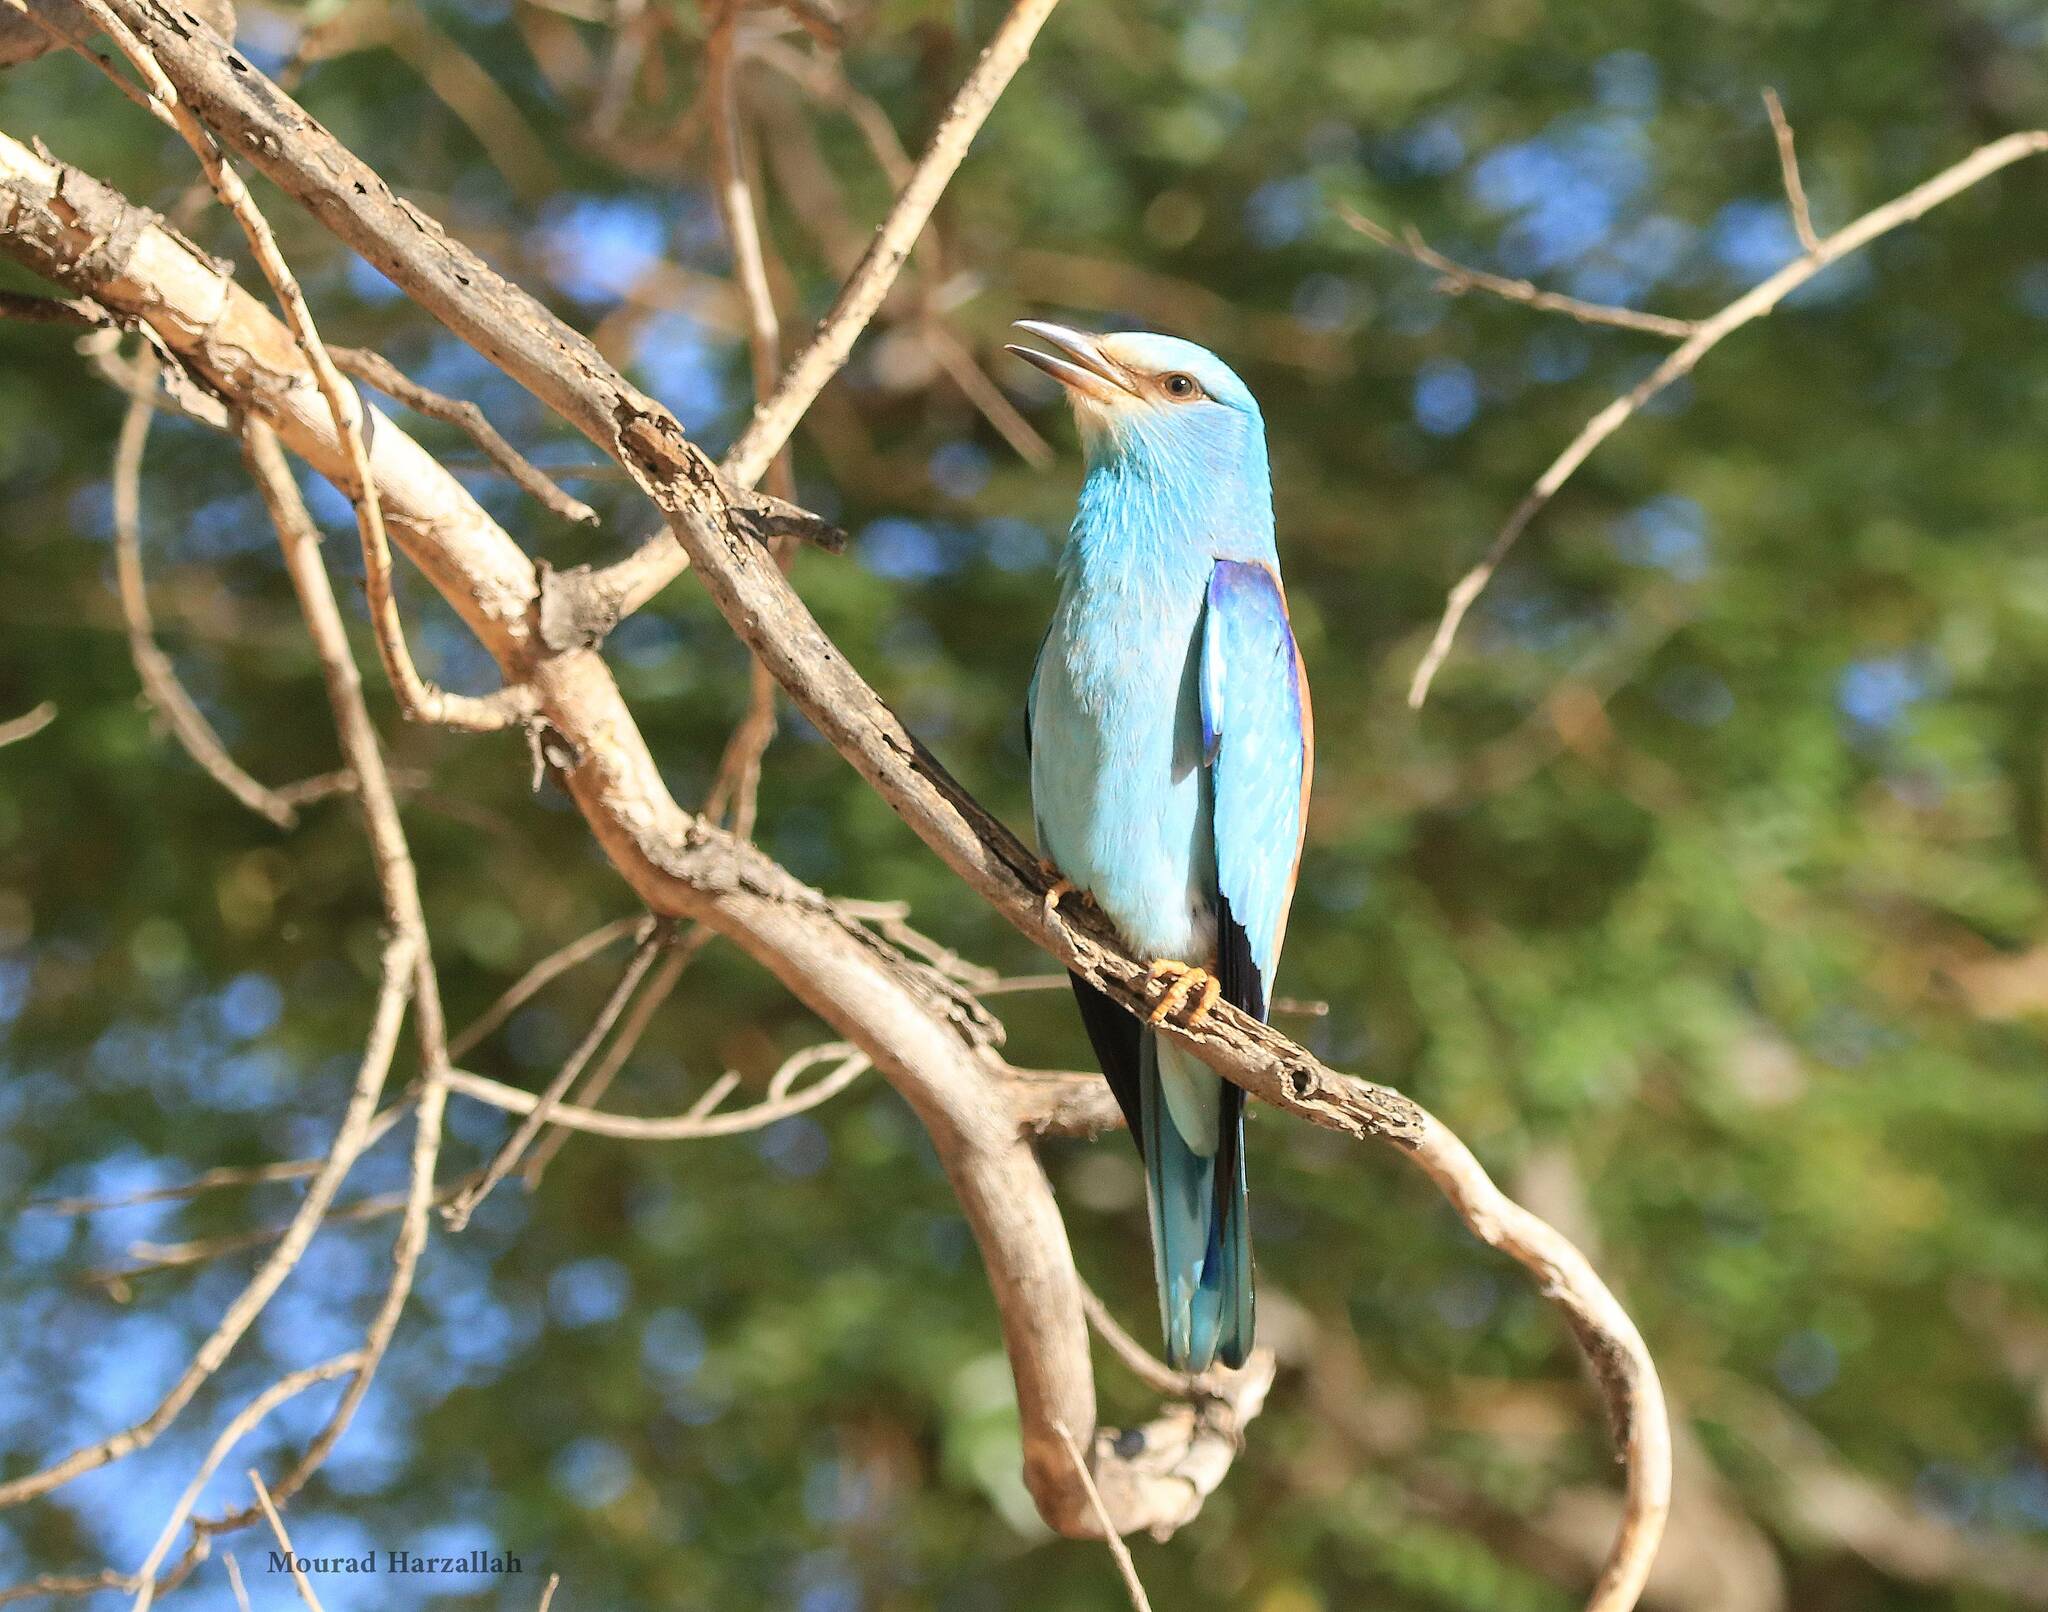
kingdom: Animalia
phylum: Chordata
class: Aves
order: Coraciiformes
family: Coraciidae
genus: Coracias
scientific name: Coracias garrulus
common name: European roller
